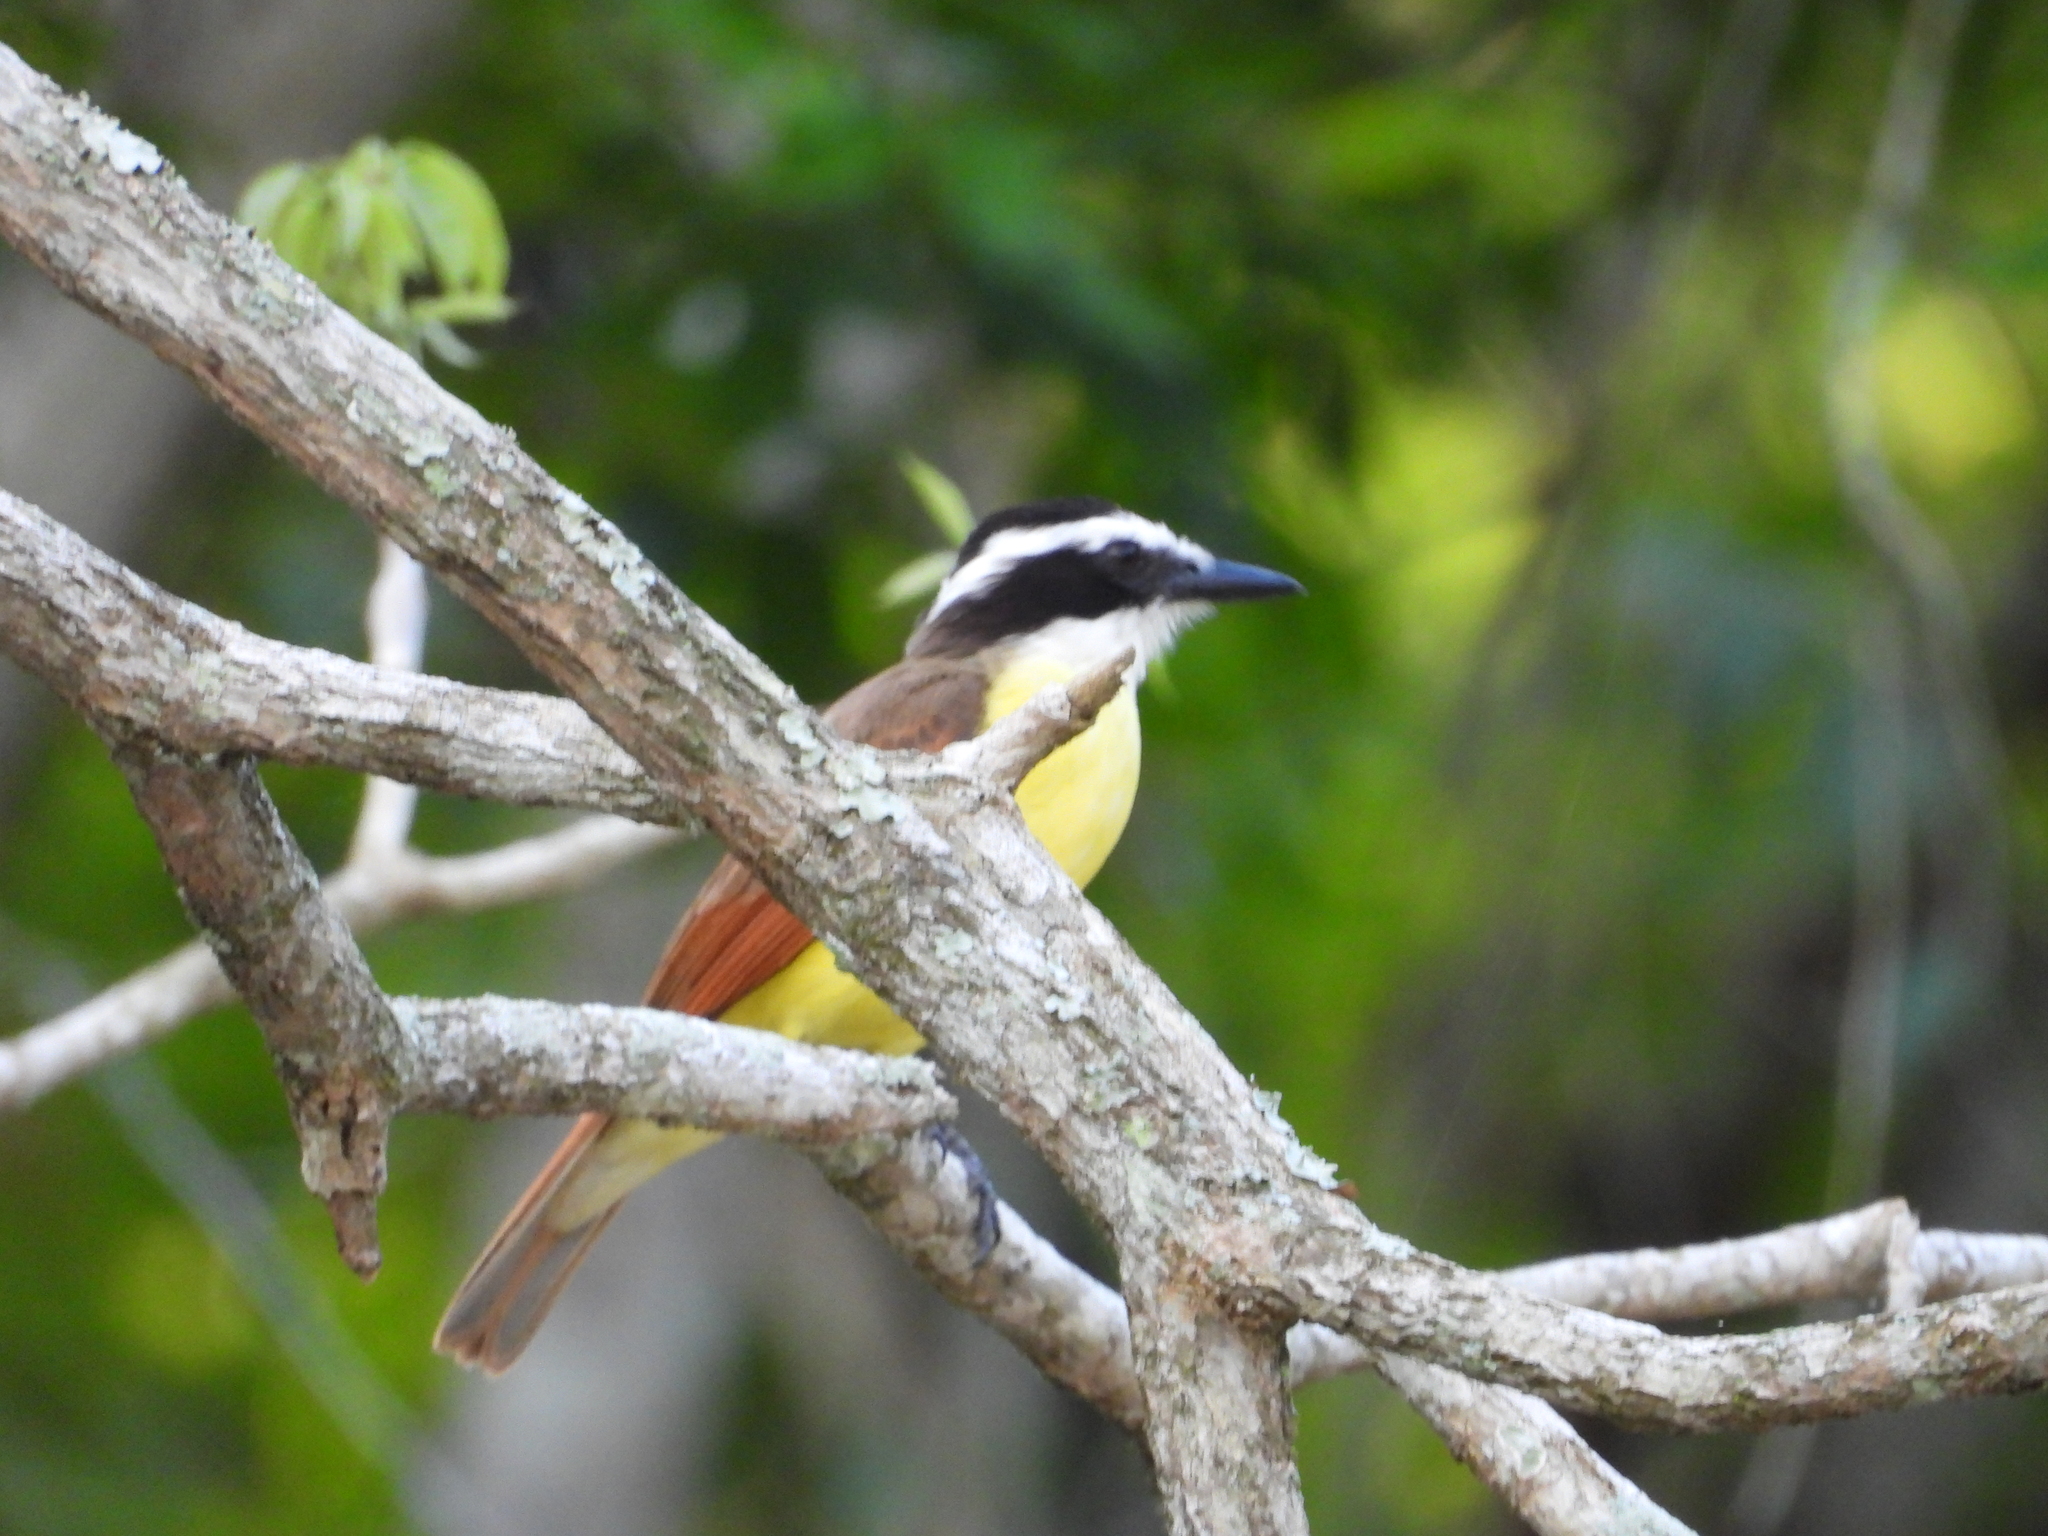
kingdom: Animalia
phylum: Chordata
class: Aves
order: Passeriformes
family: Tyrannidae
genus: Pitangus
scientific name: Pitangus sulphuratus
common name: Great kiskadee
